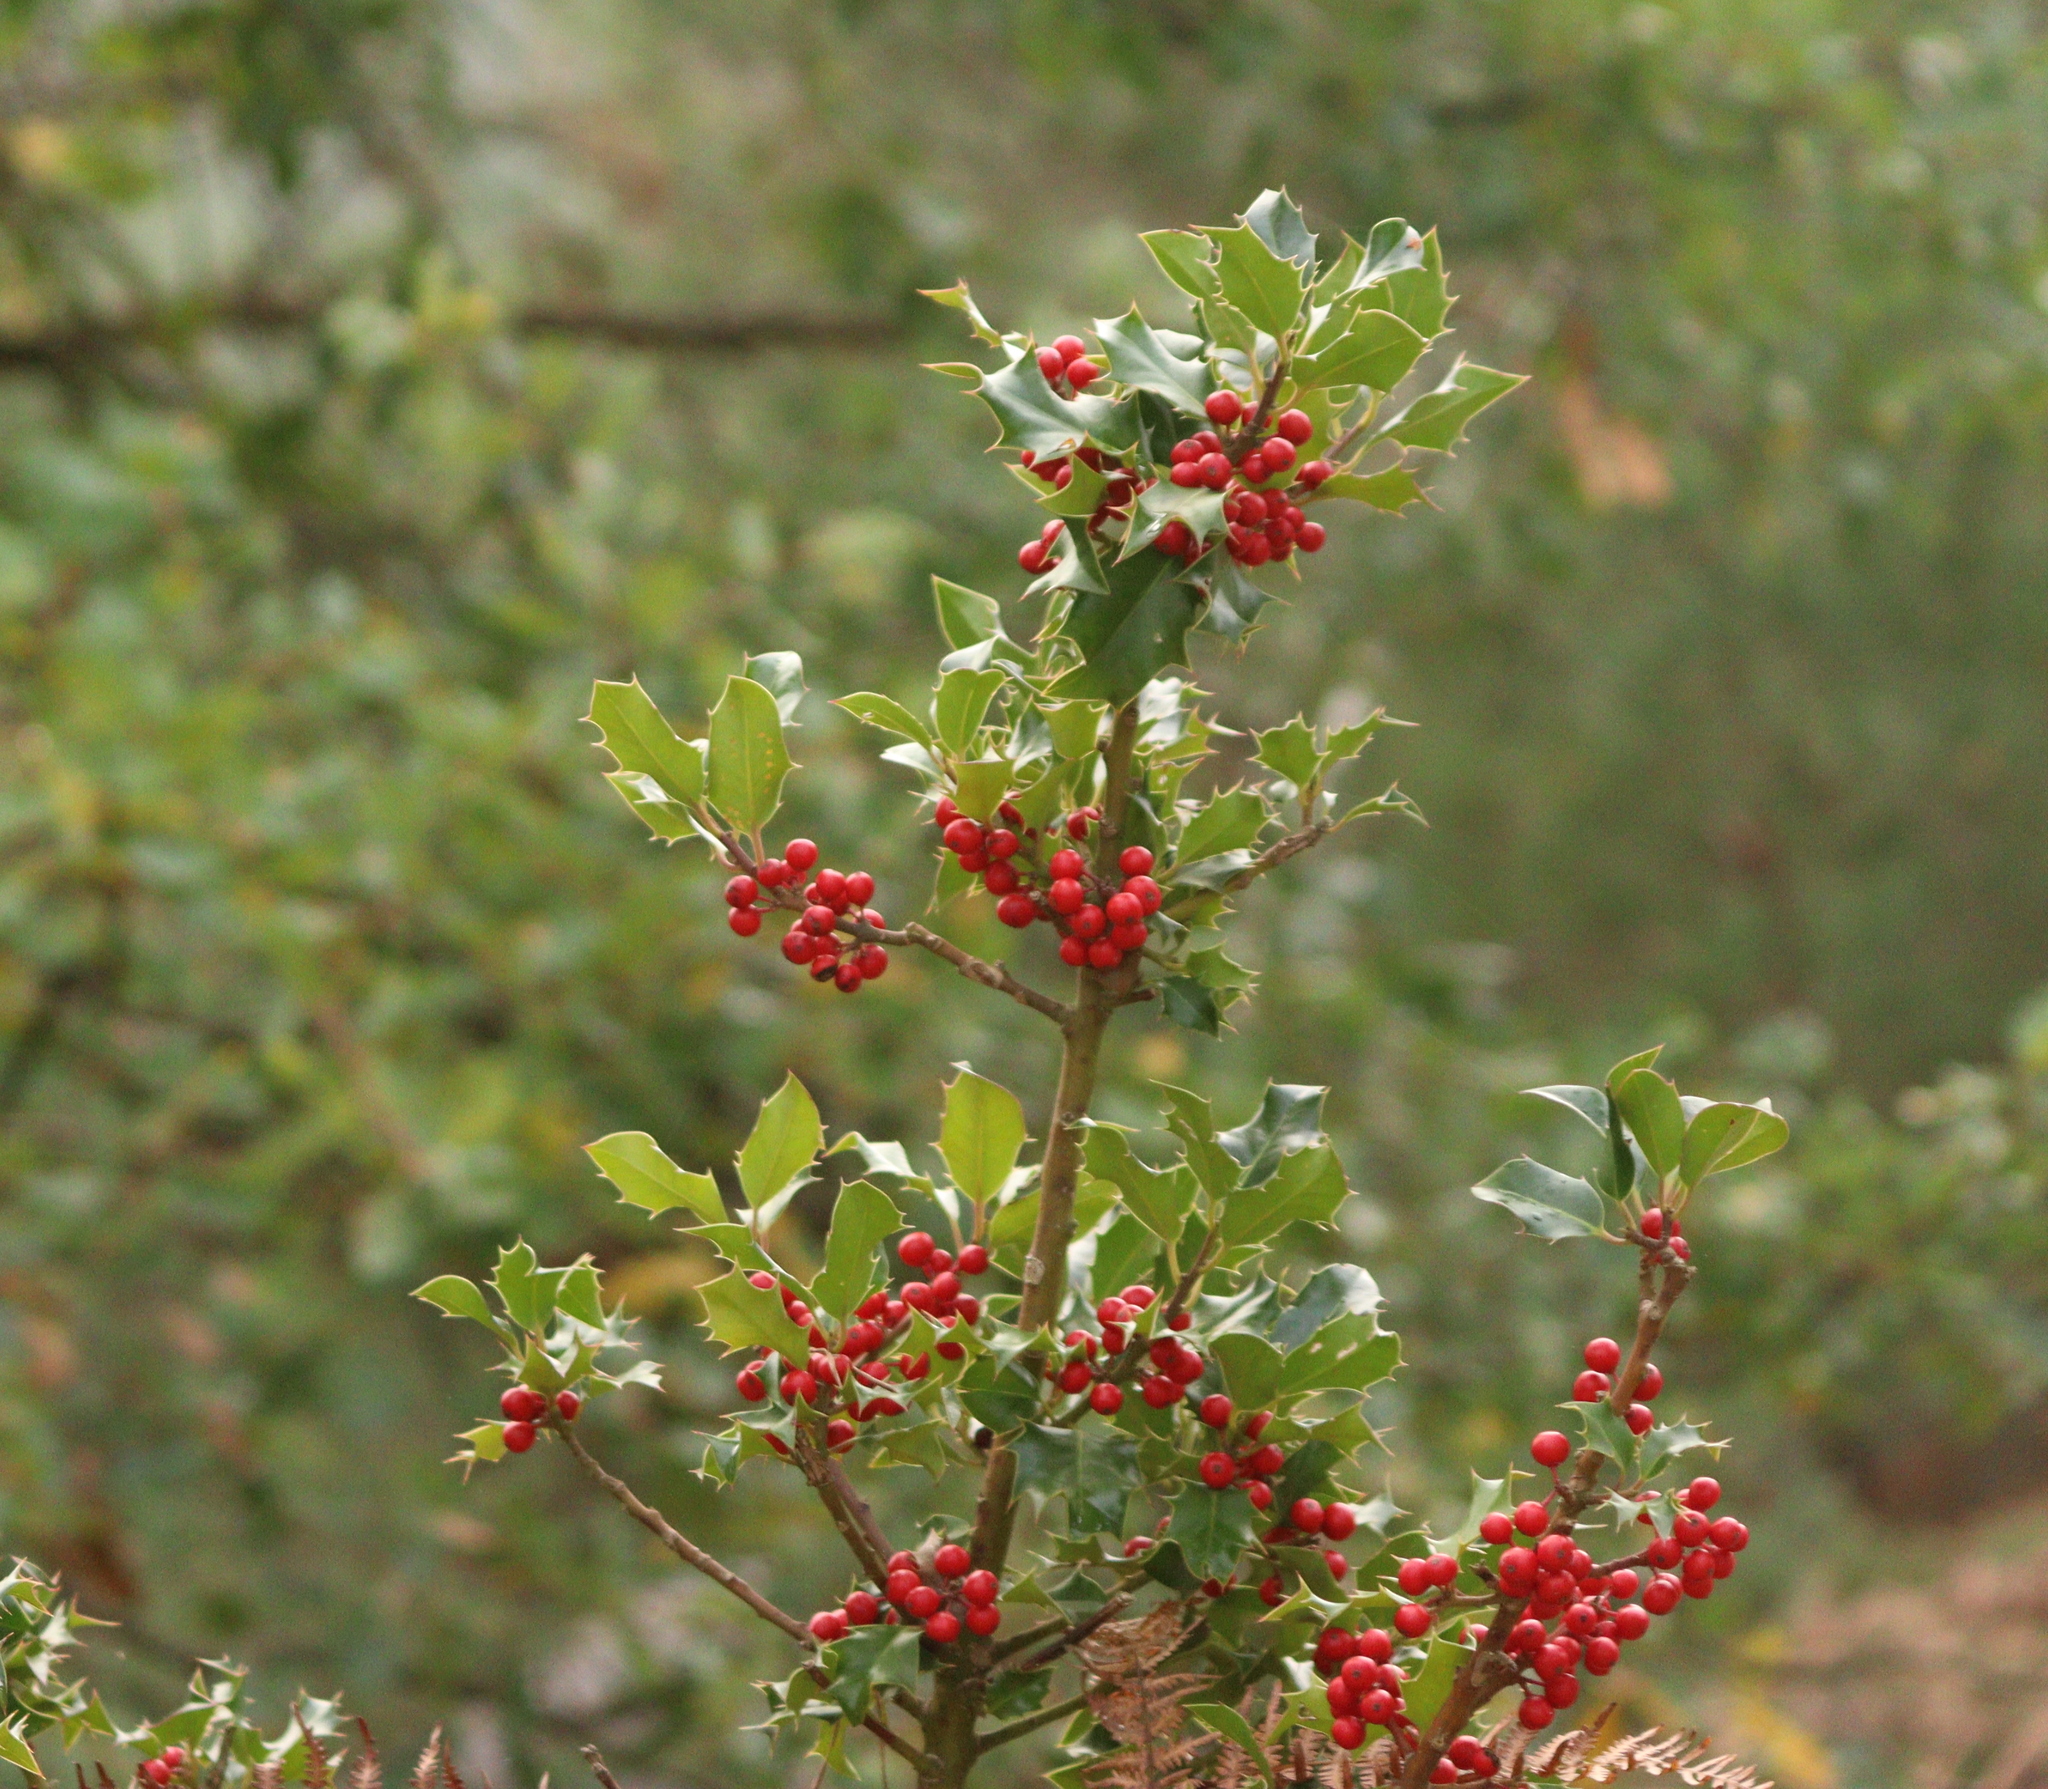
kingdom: Plantae
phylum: Tracheophyta
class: Magnoliopsida
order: Aquifoliales
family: Aquifoliaceae
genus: Ilex
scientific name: Ilex aquifolium
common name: English holly
